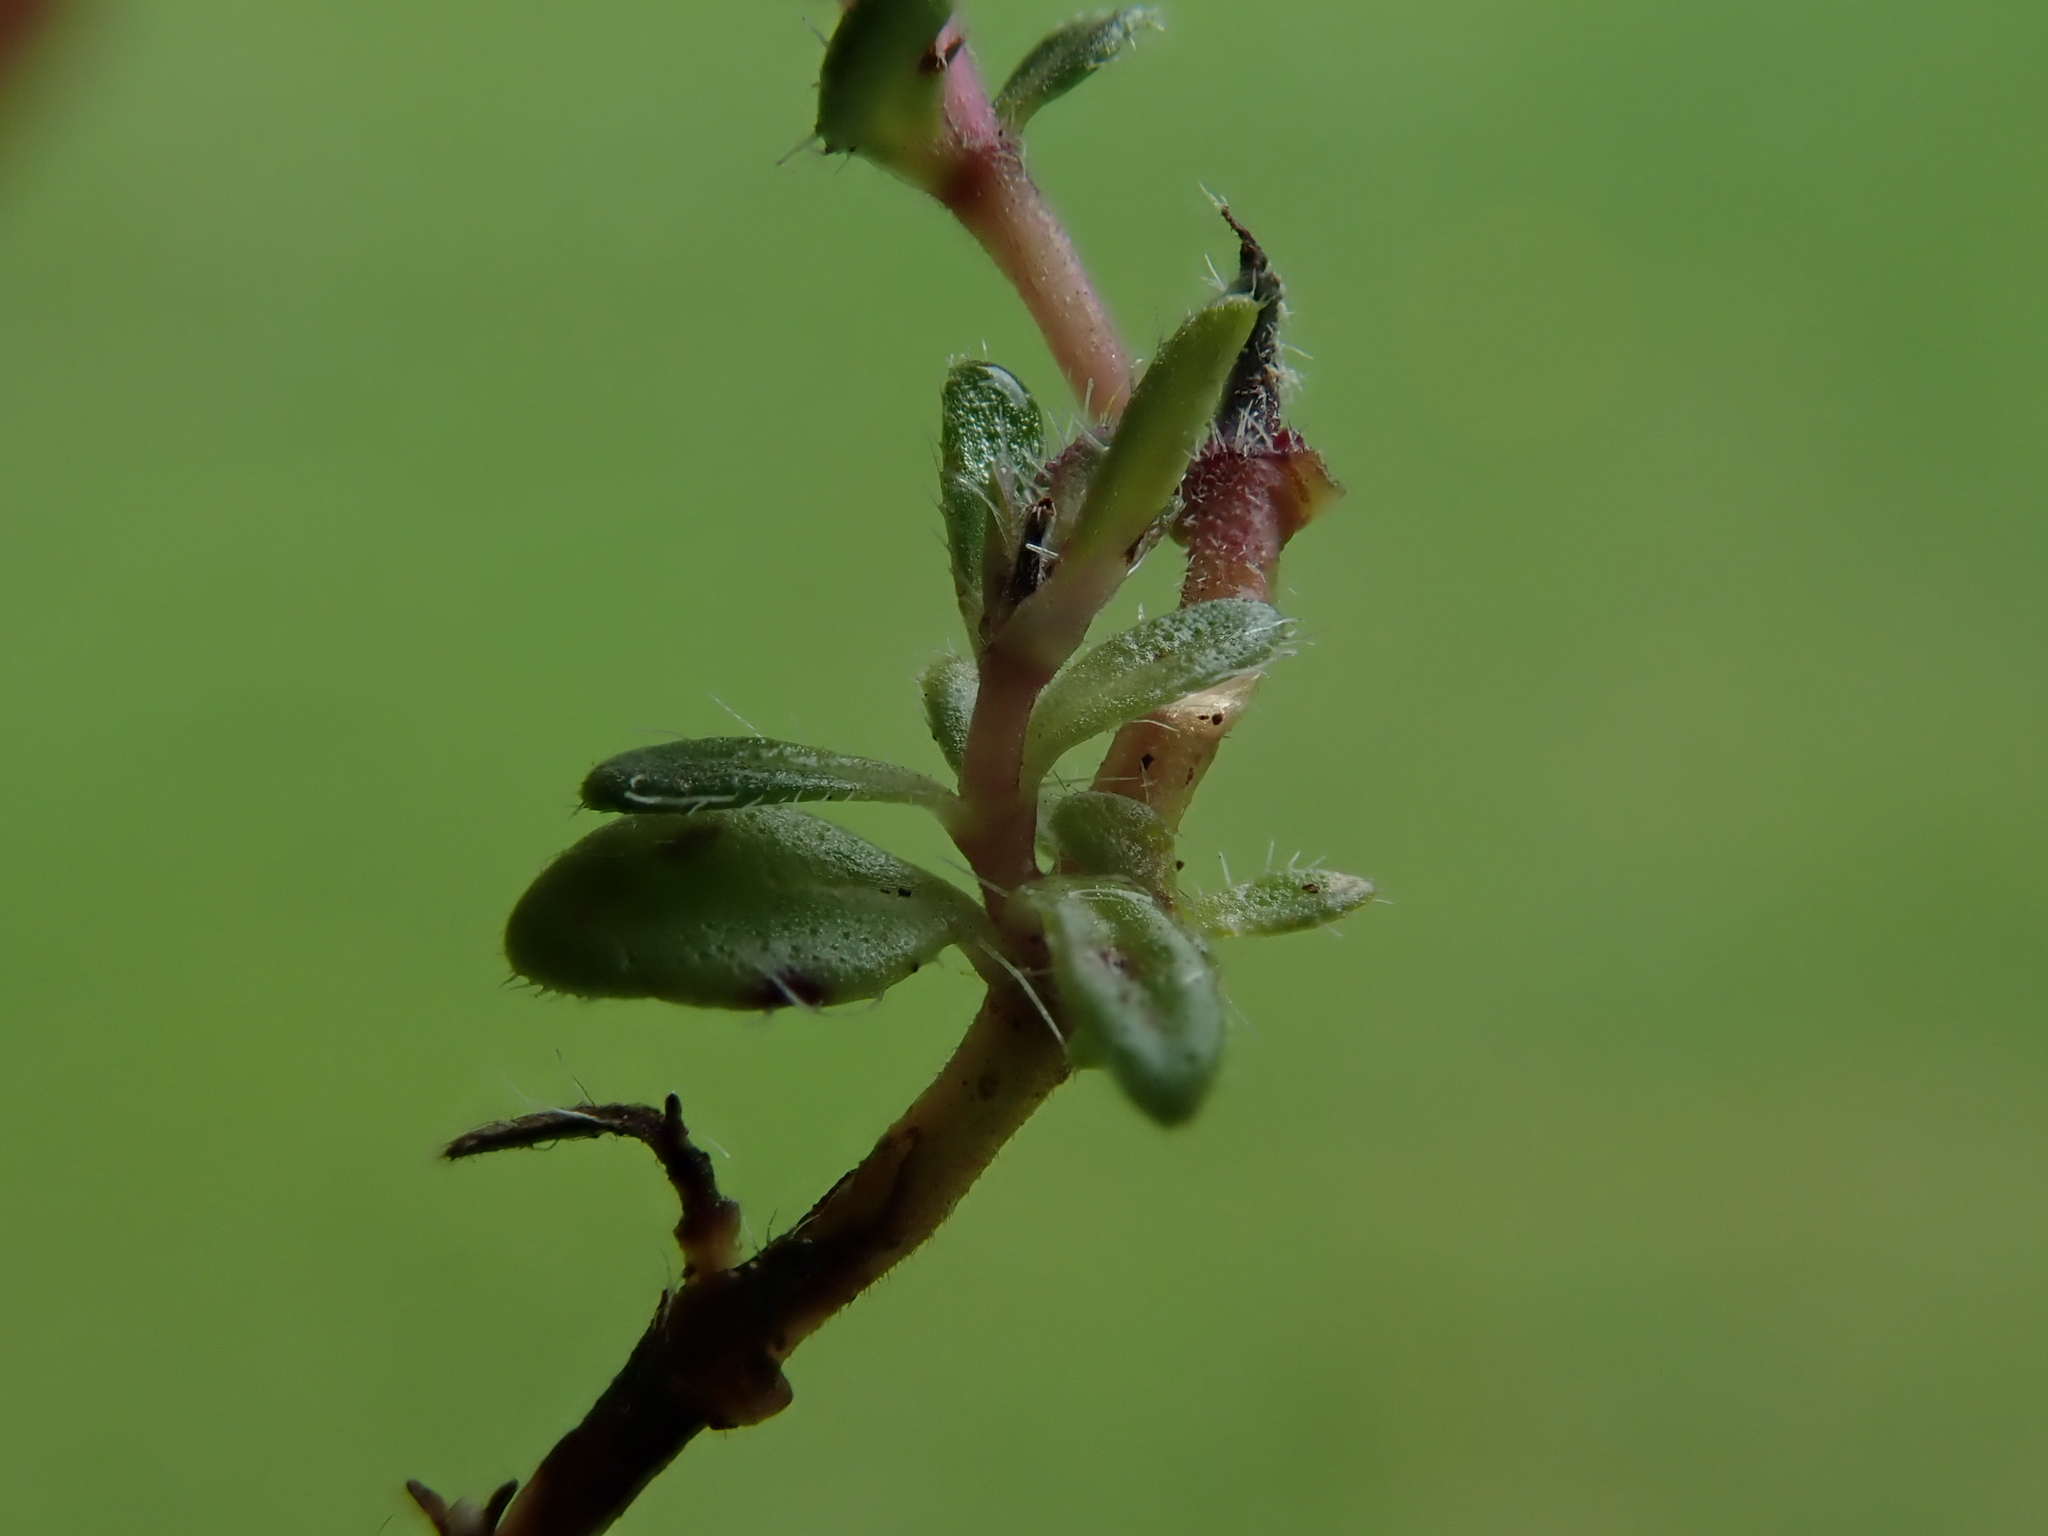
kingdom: Plantae
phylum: Tracheophyta
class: Magnoliopsida
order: Lamiales
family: Lamiaceae
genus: Thymus
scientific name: Thymus praecox
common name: Wild thyme
